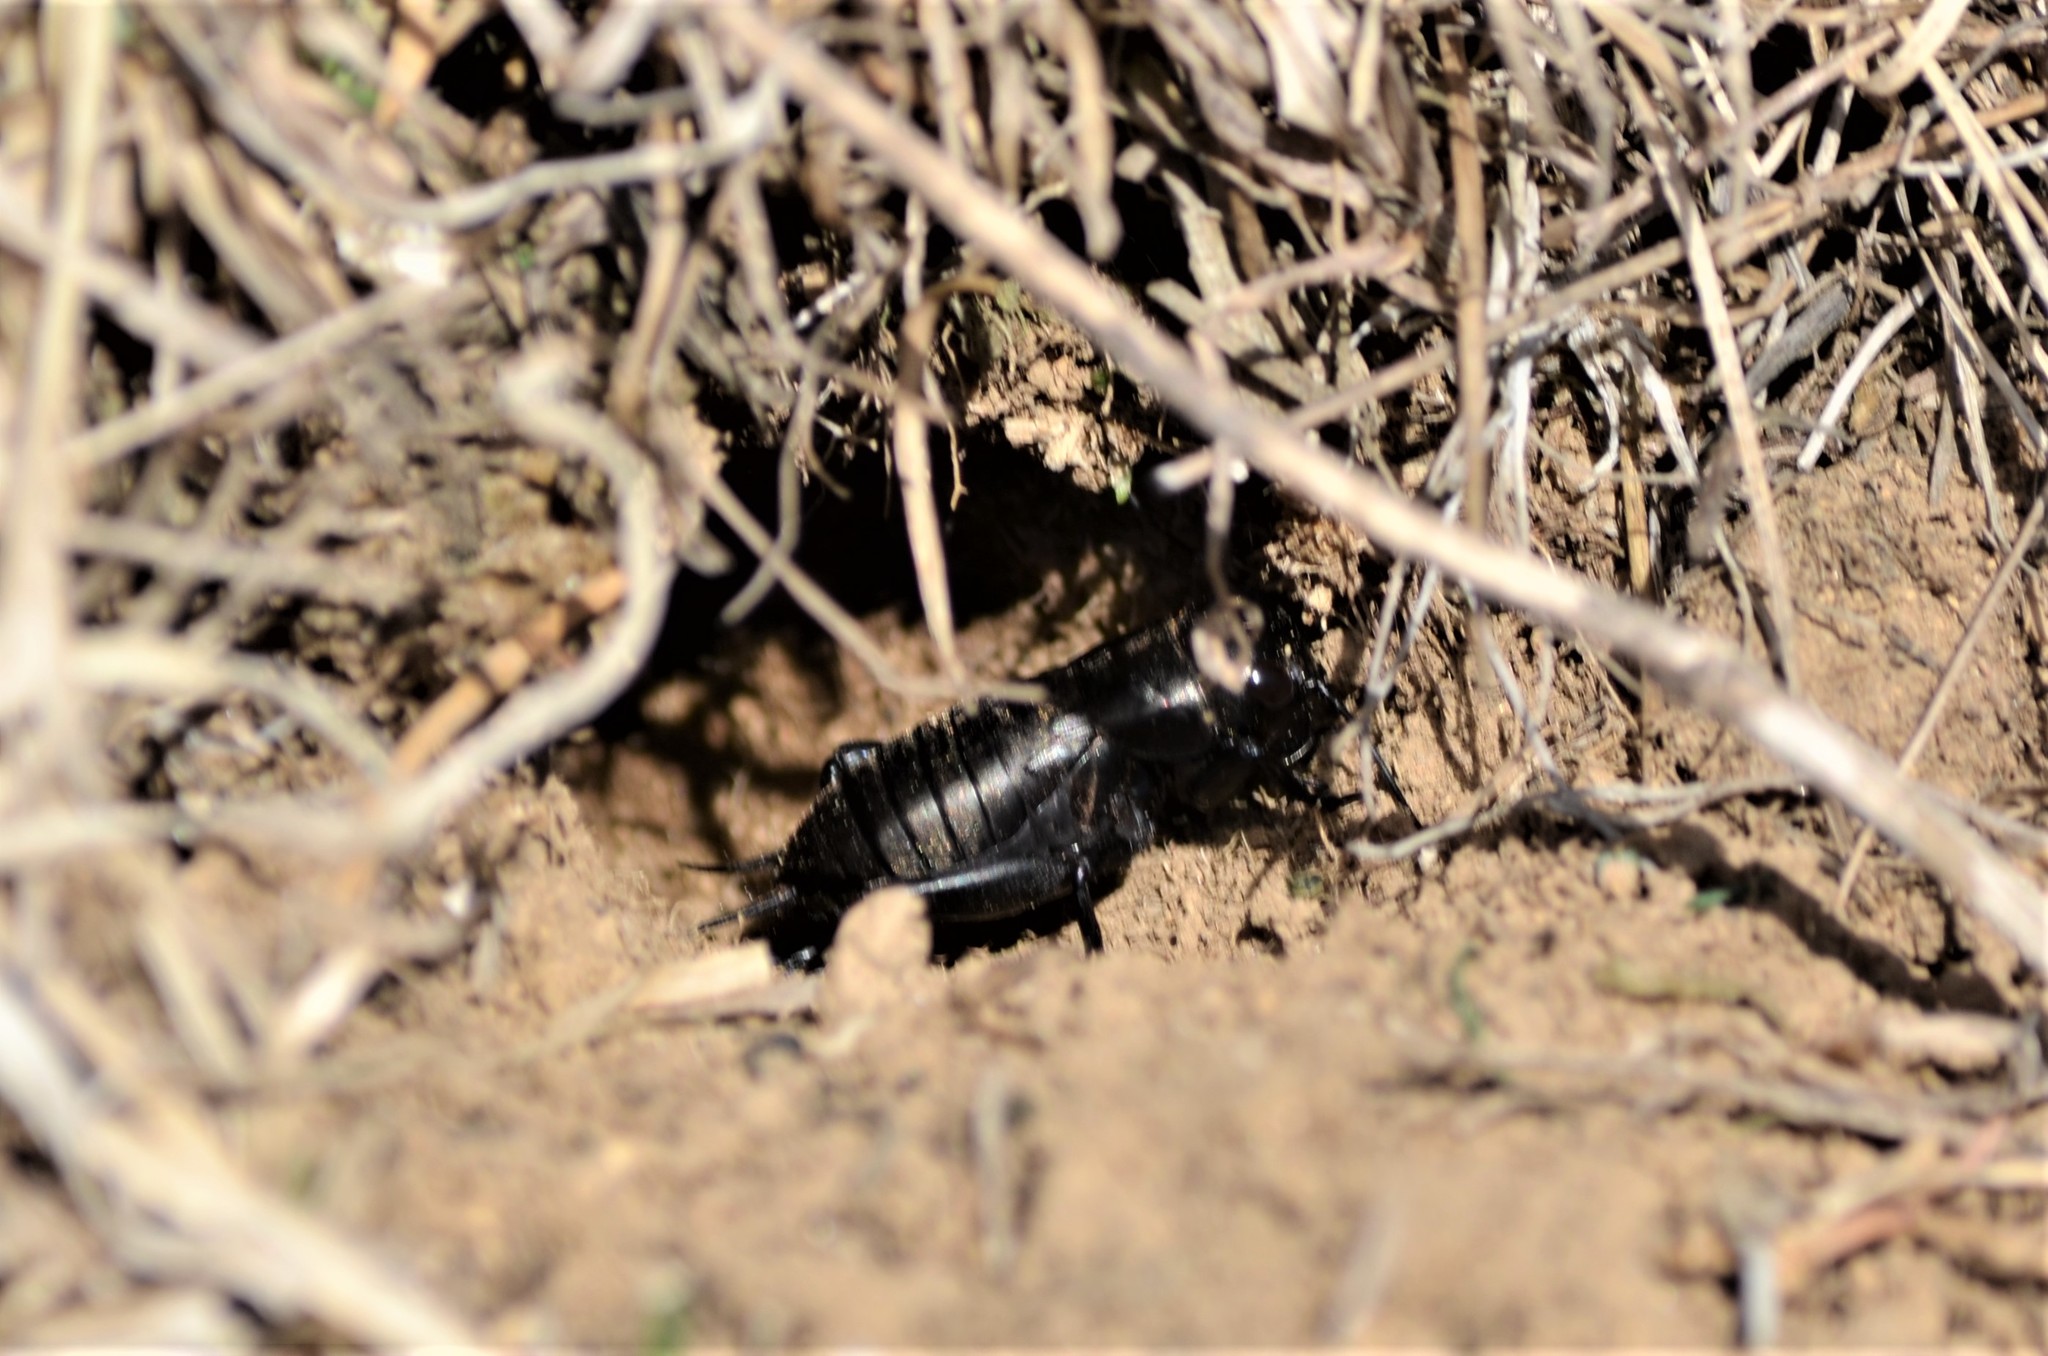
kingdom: Animalia
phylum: Arthropoda
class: Insecta
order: Orthoptera
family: Gryllidae
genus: Gryllus
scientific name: Gryllus campestris
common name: Field cricket
